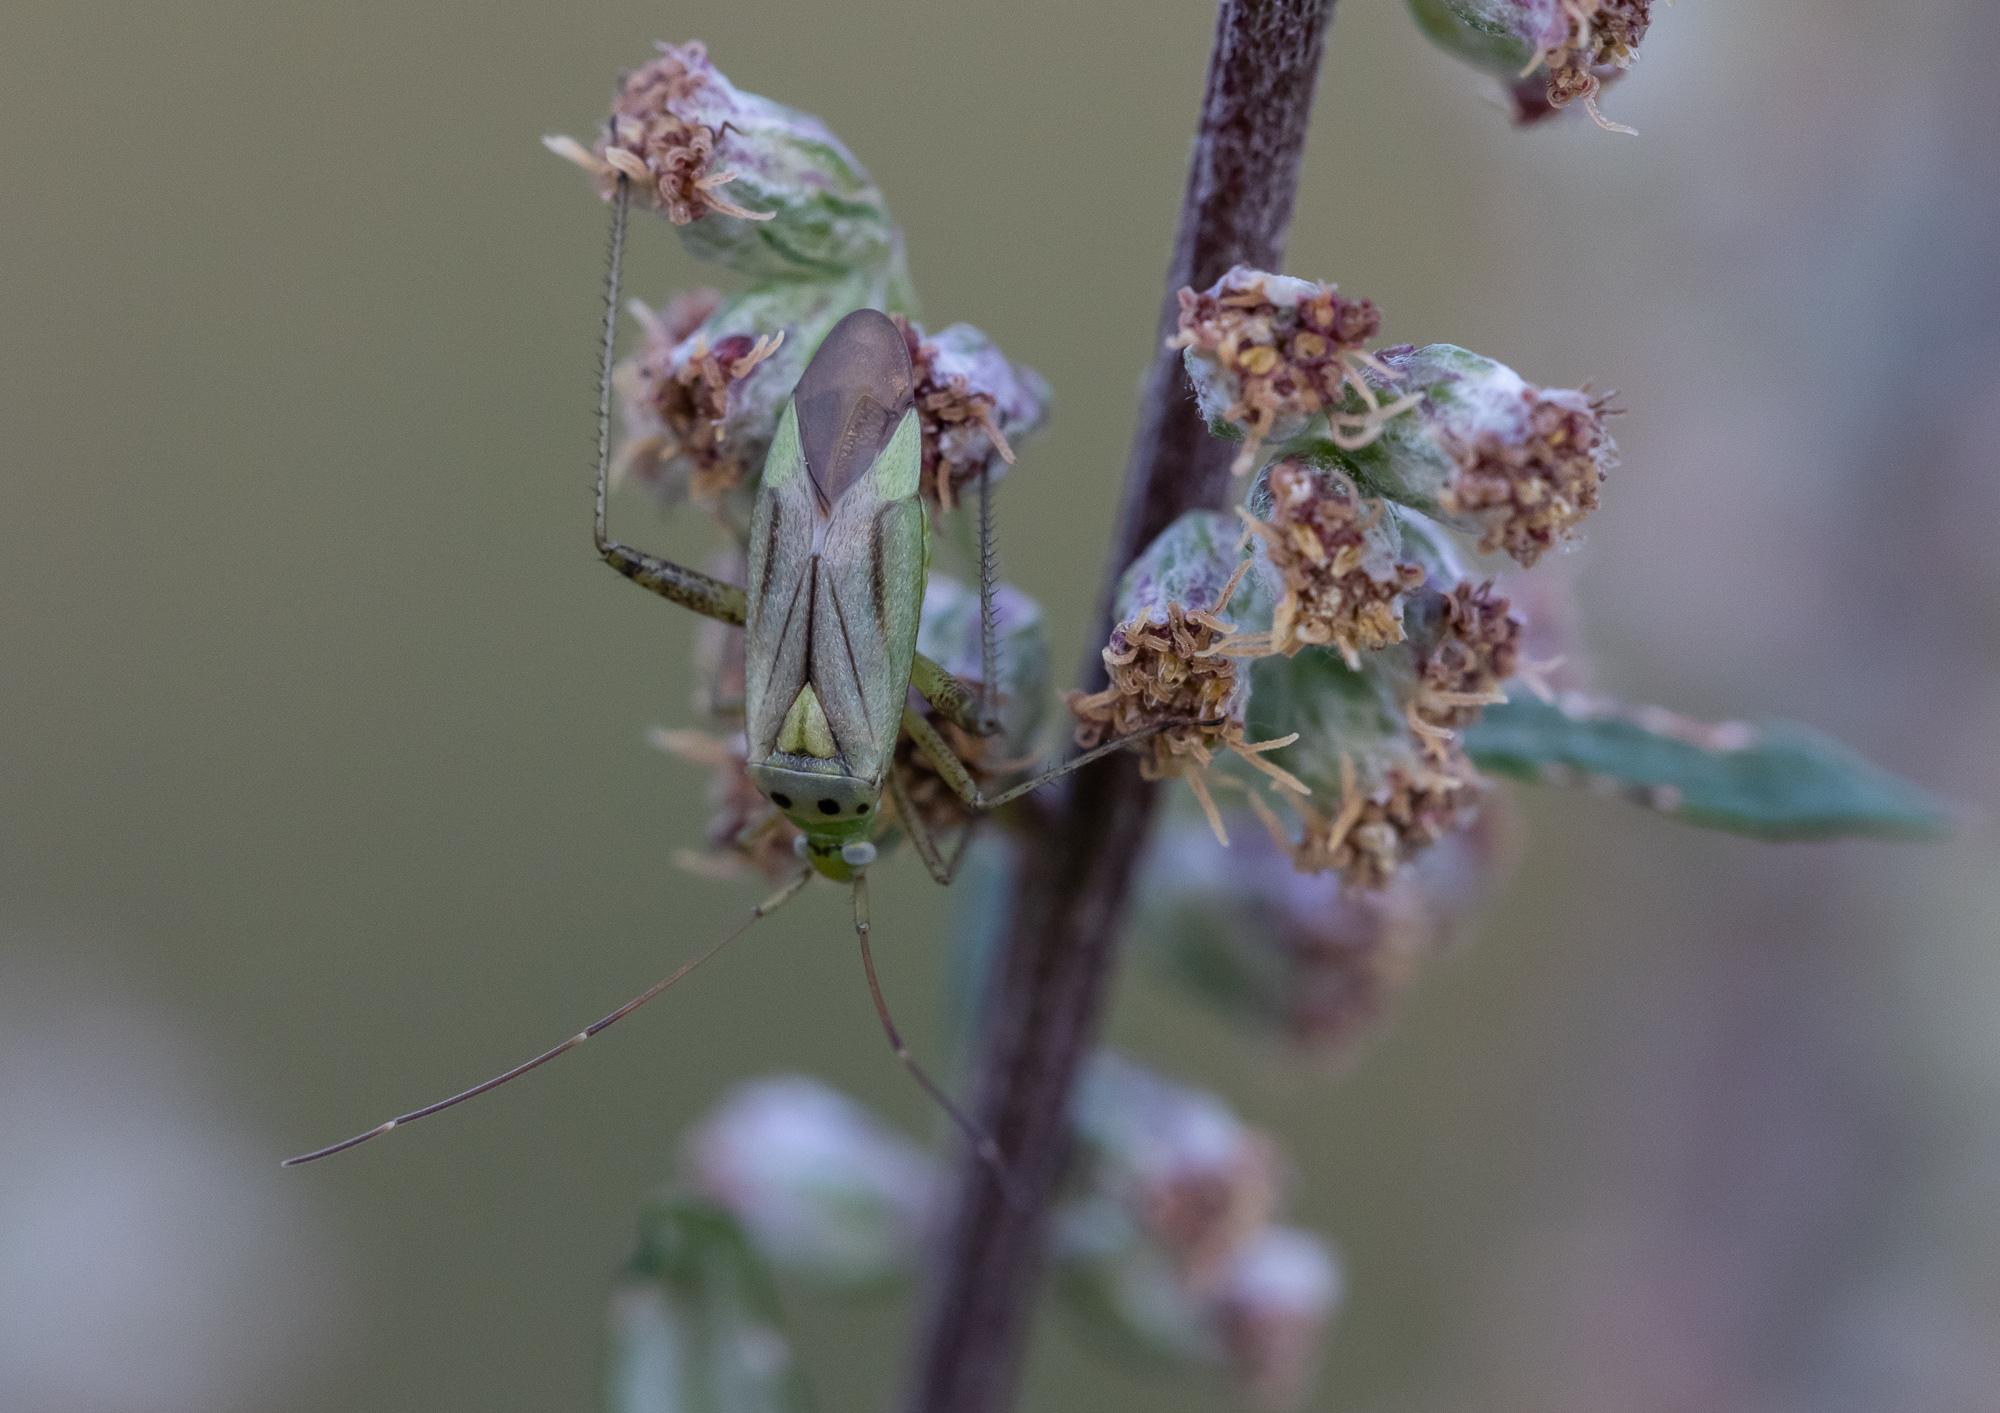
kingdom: Animalia
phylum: Arthropoda
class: Insecta
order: Hemiptera
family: Miridae
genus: Adelphocoris
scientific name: Adelphocoris quadripunctatus
